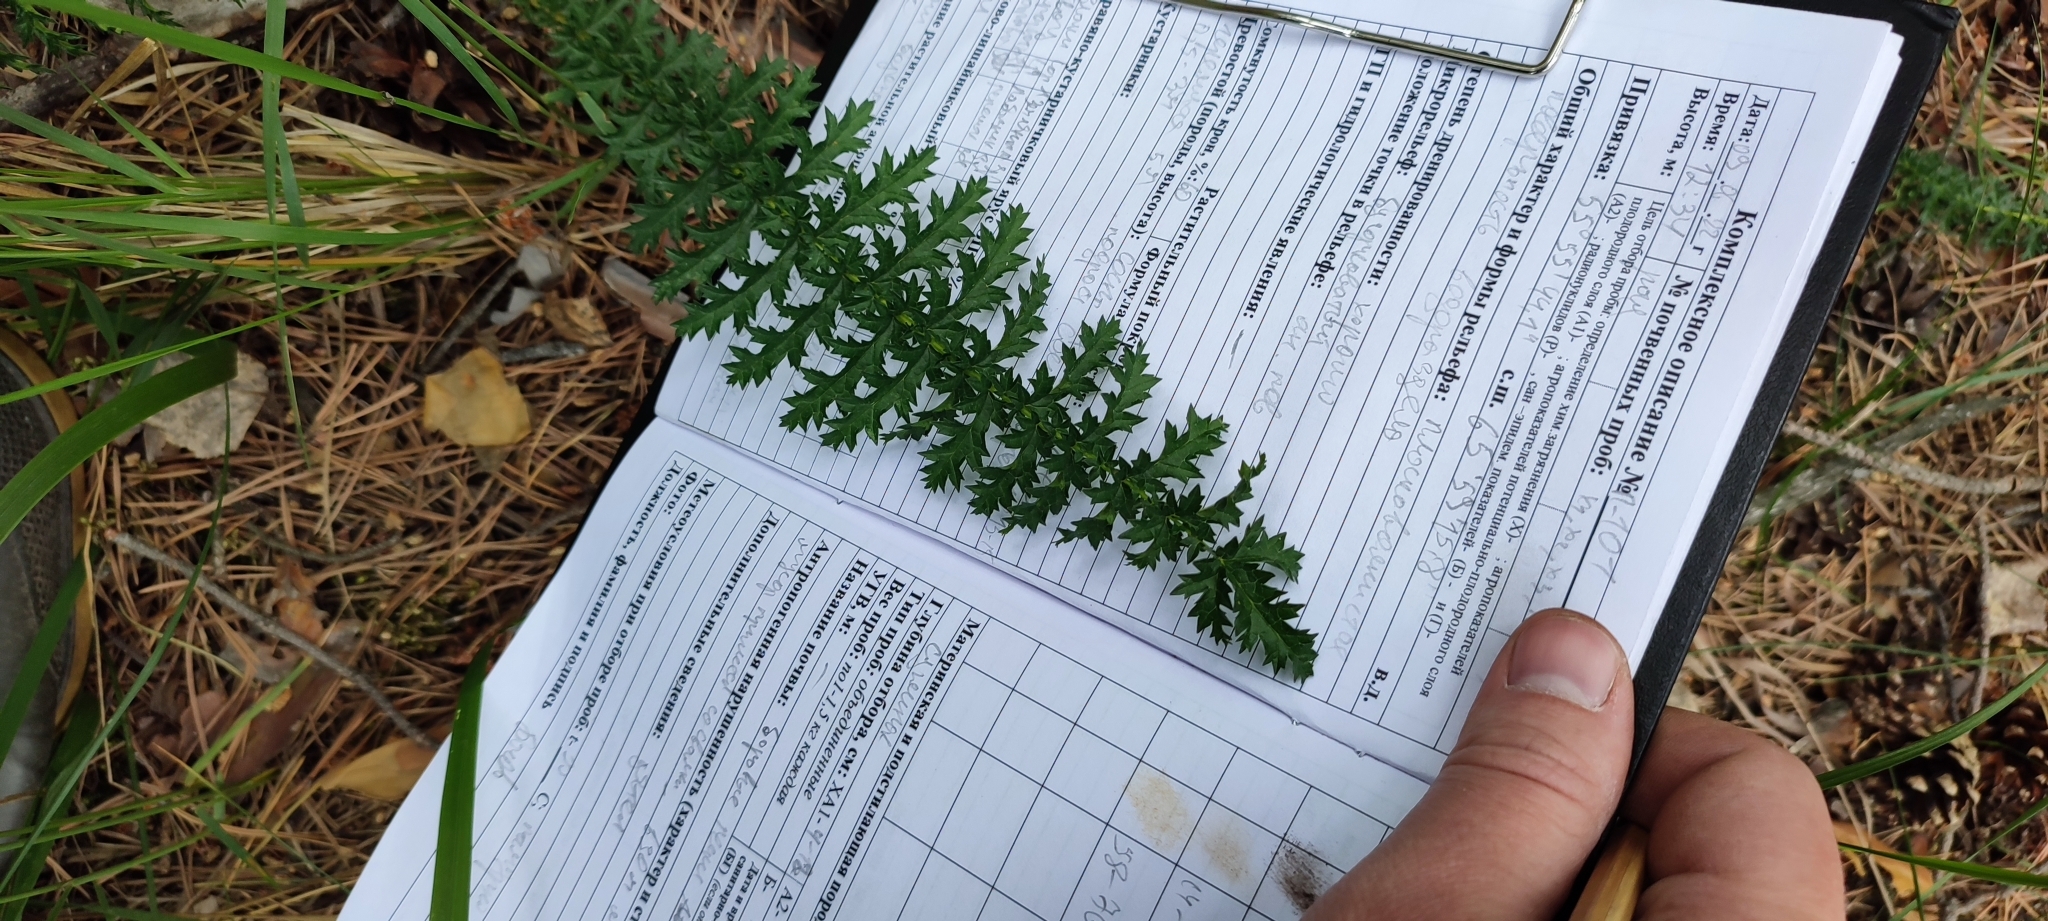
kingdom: Plantae
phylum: Tracheophyta
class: Magnoliopsida
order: Rosales
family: Rosaceae
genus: Filipendula
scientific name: Filipendula vulgaris
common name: Dropwort
